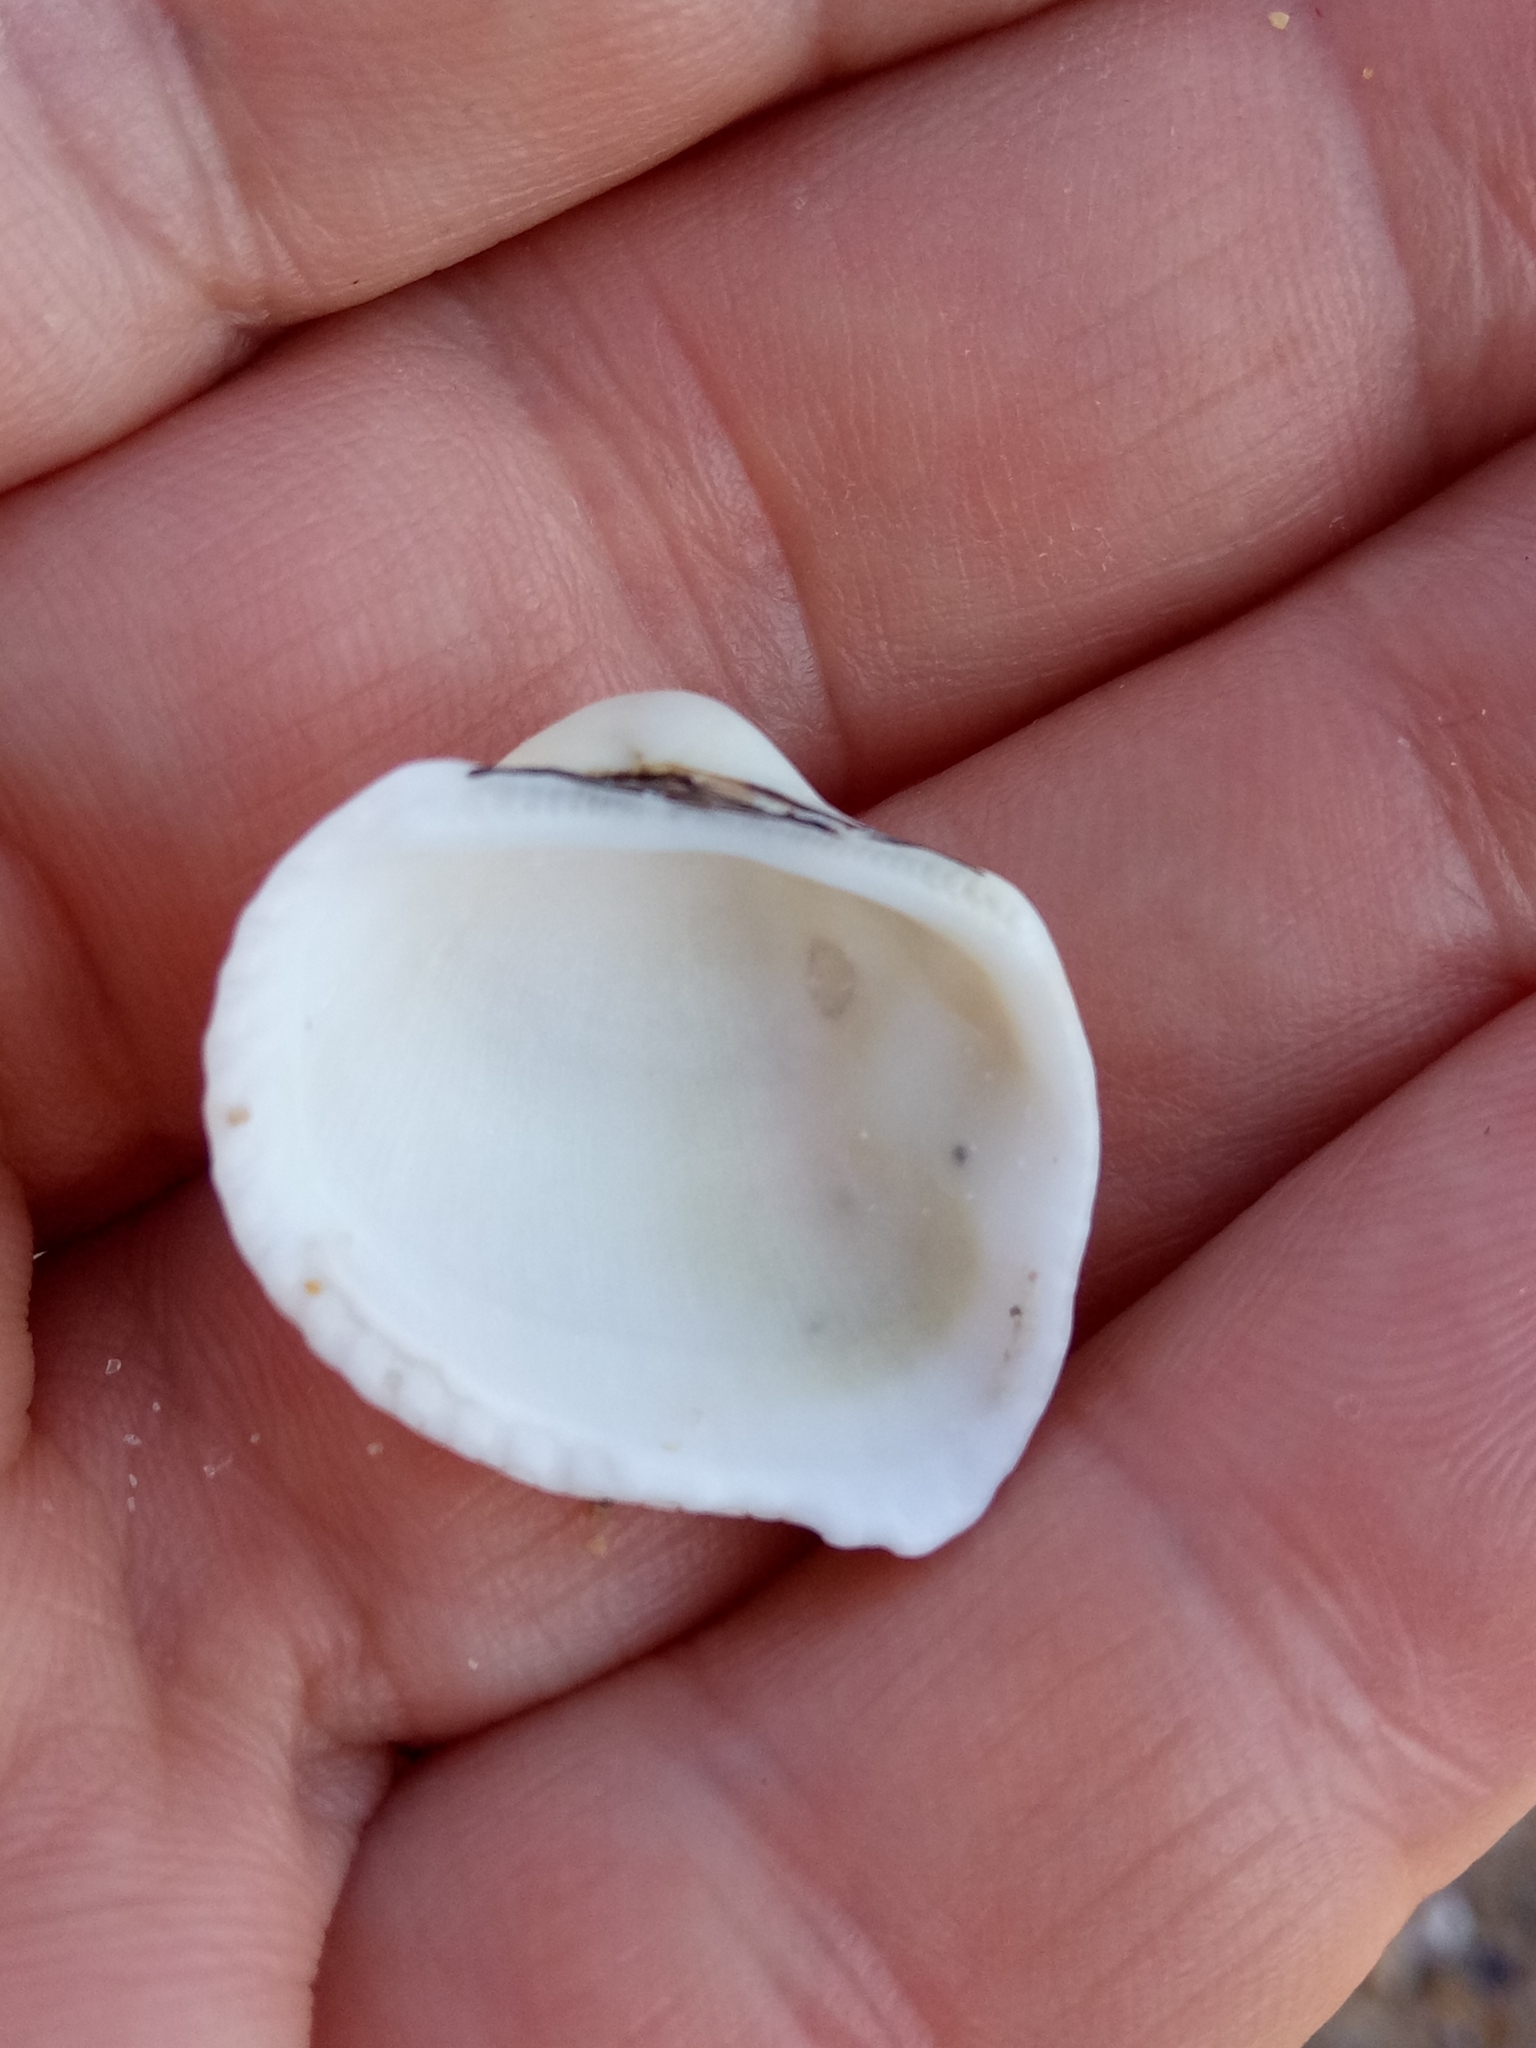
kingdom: Animalia
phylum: Mollusca
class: Bivalvia
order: Arcida
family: Arcidae
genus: Anadara
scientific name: Anadara kagoshimensis
